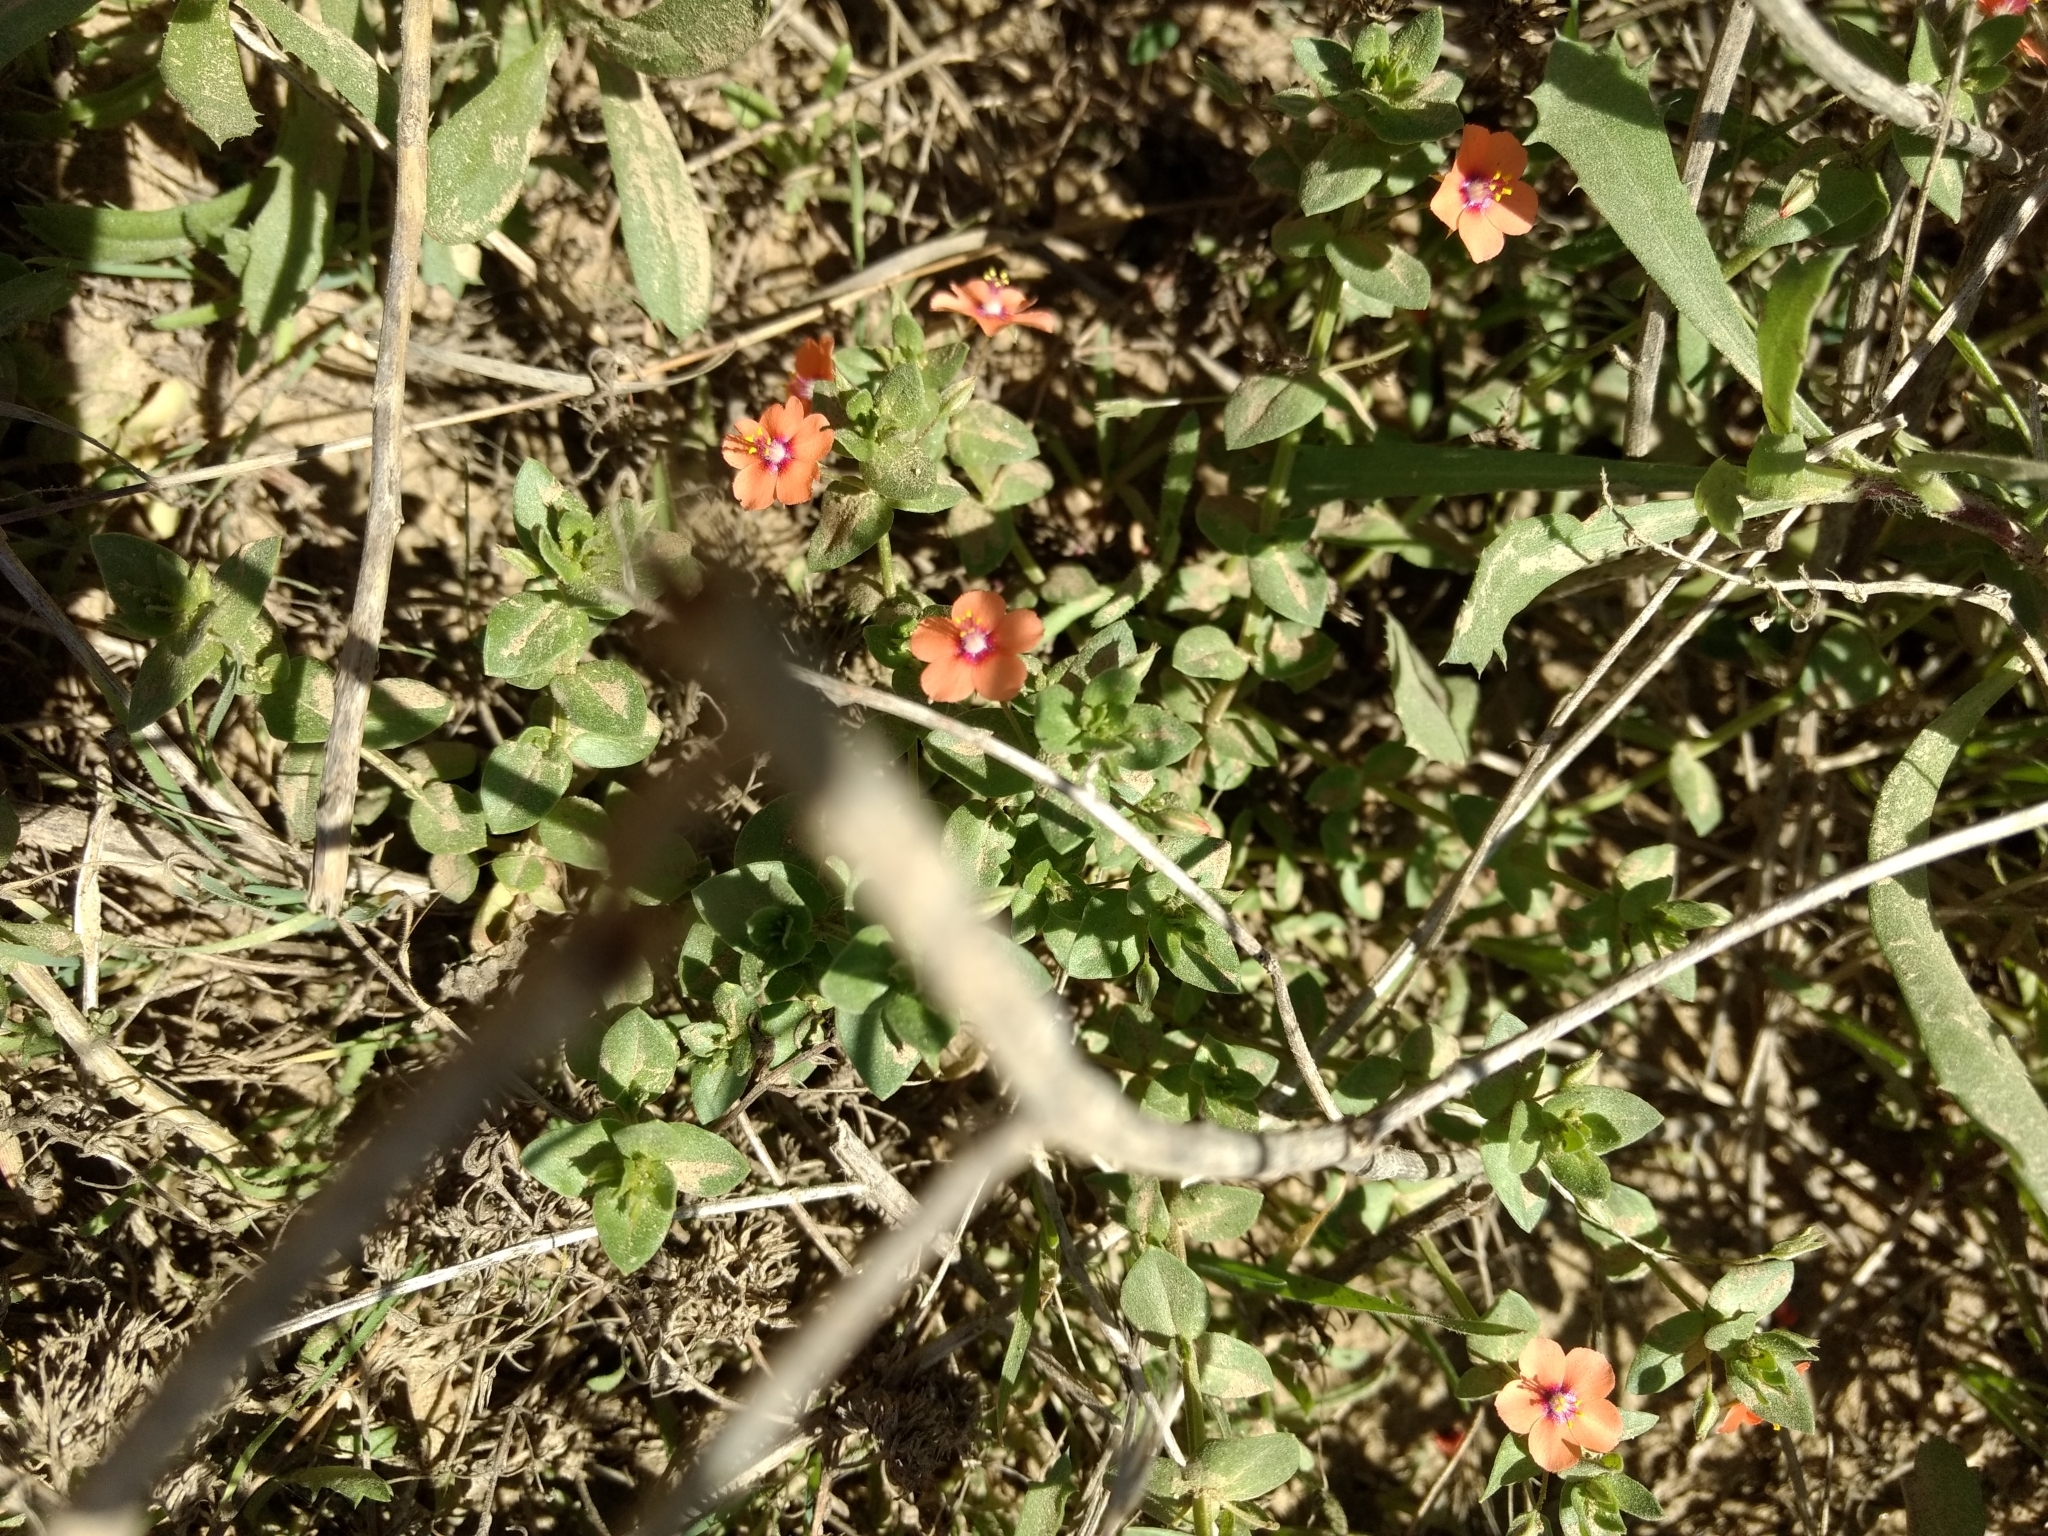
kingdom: Plantae
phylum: Tracheophyta
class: Magnoliopsida
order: Ericales
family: Primulaceae
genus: Lysimachia
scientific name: Lysimachia arvensis
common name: Scarlet pimpernel
